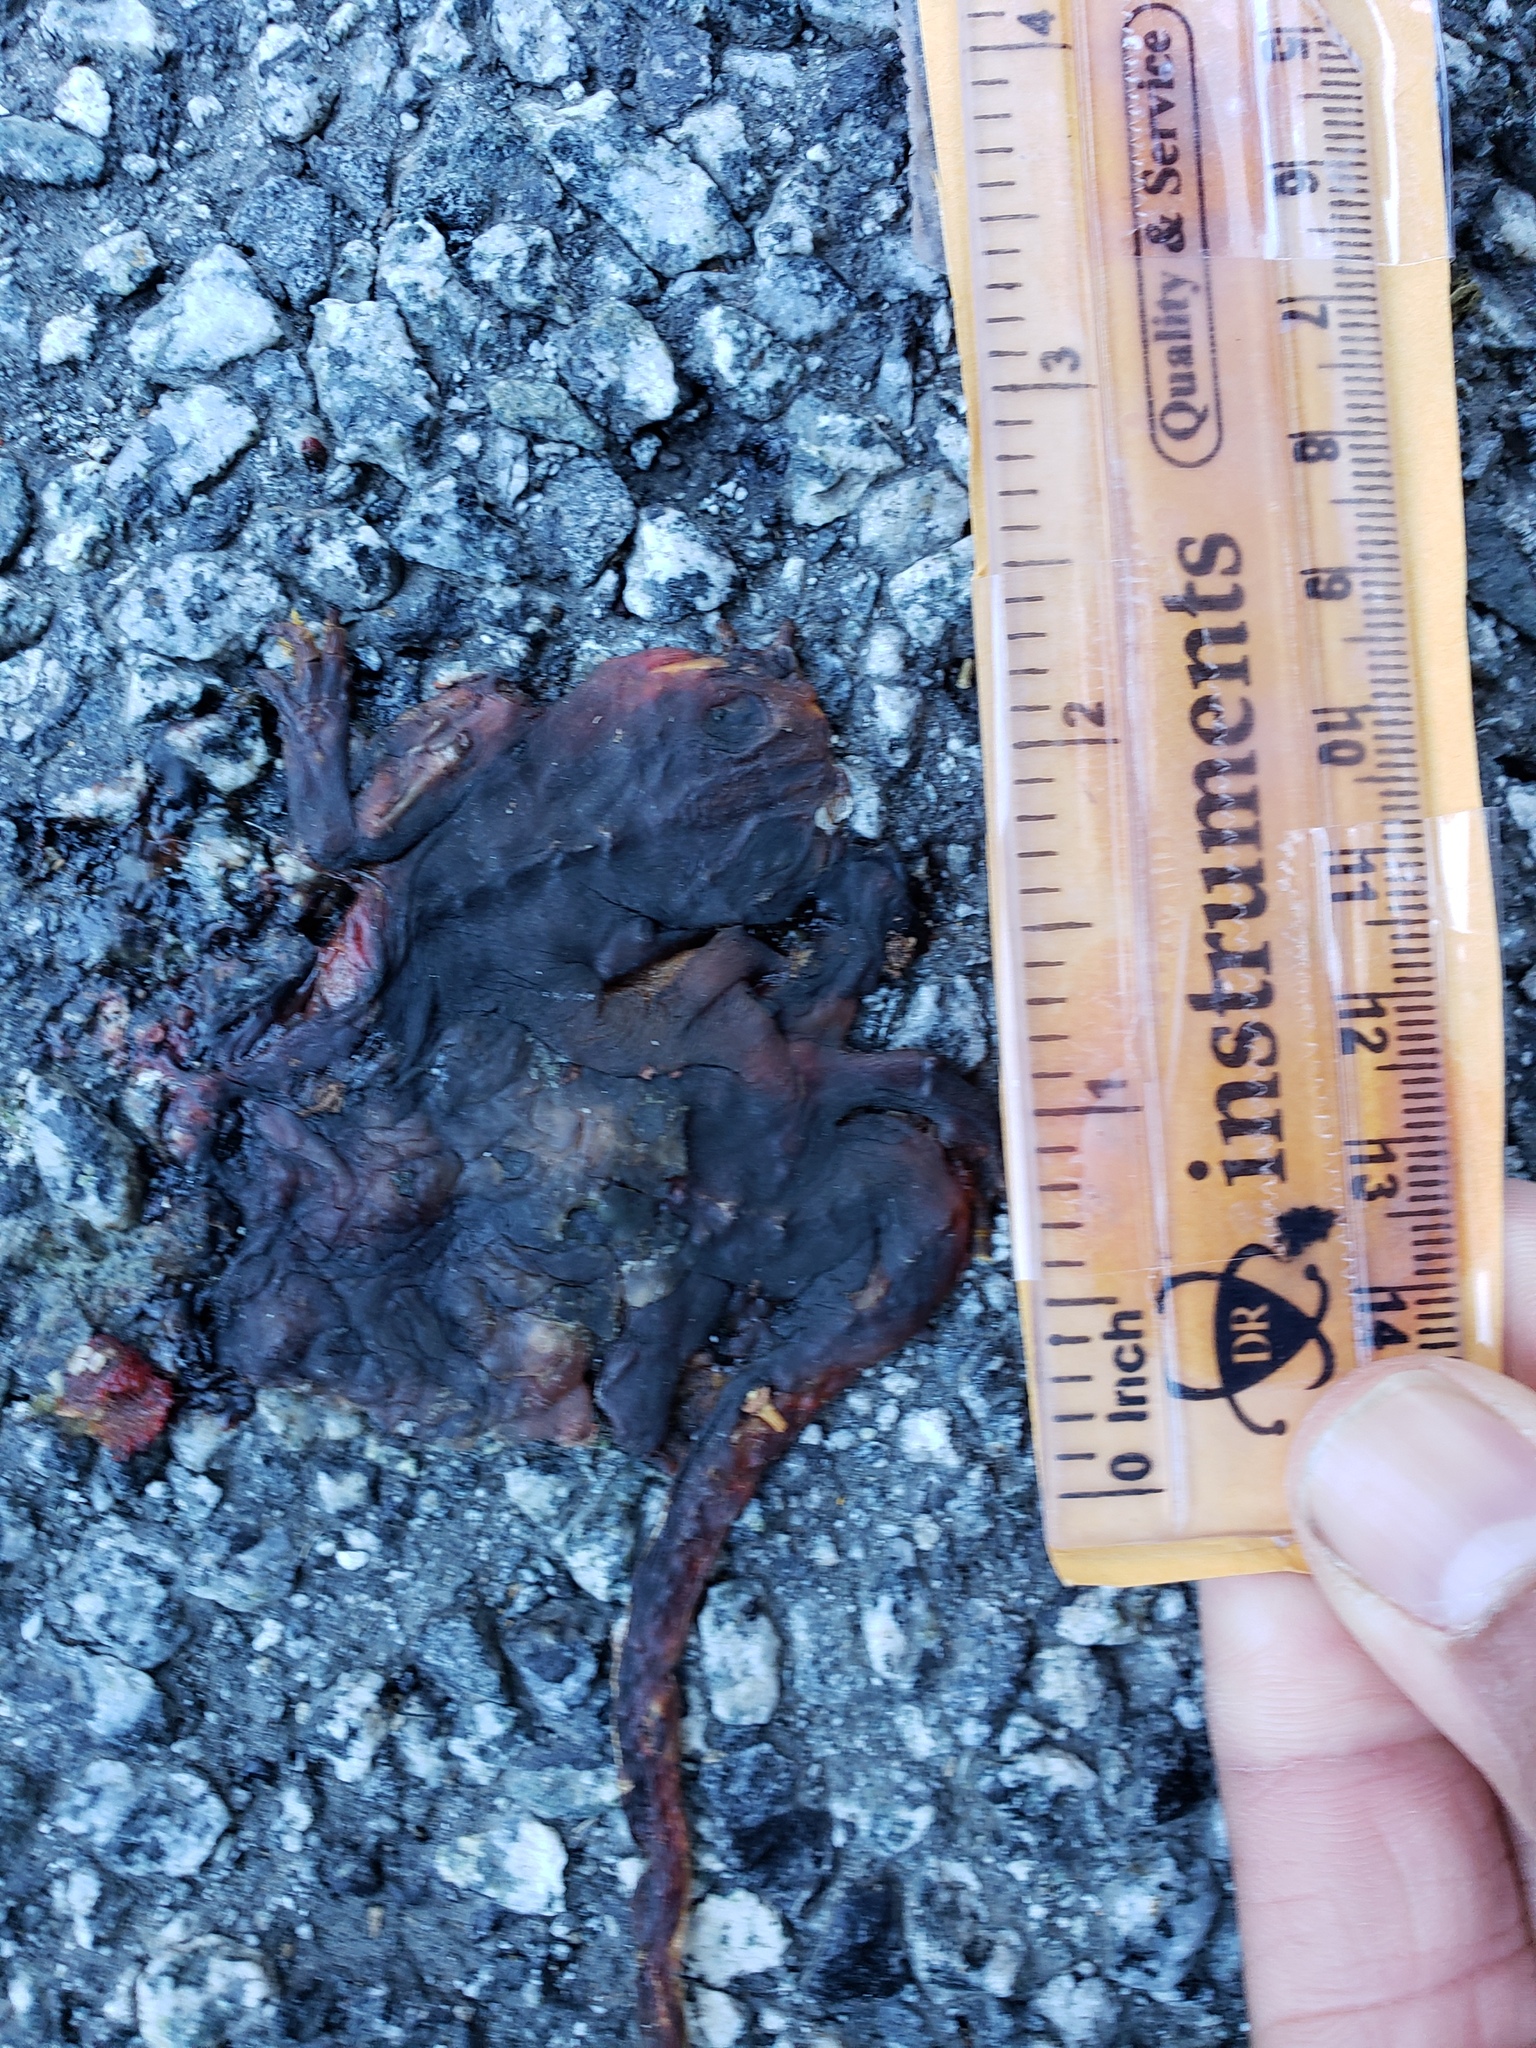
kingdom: Animalia
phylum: Chordata
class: Amphibia
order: Caudata
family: Salamandridae
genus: Taricha
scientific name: Taricha
